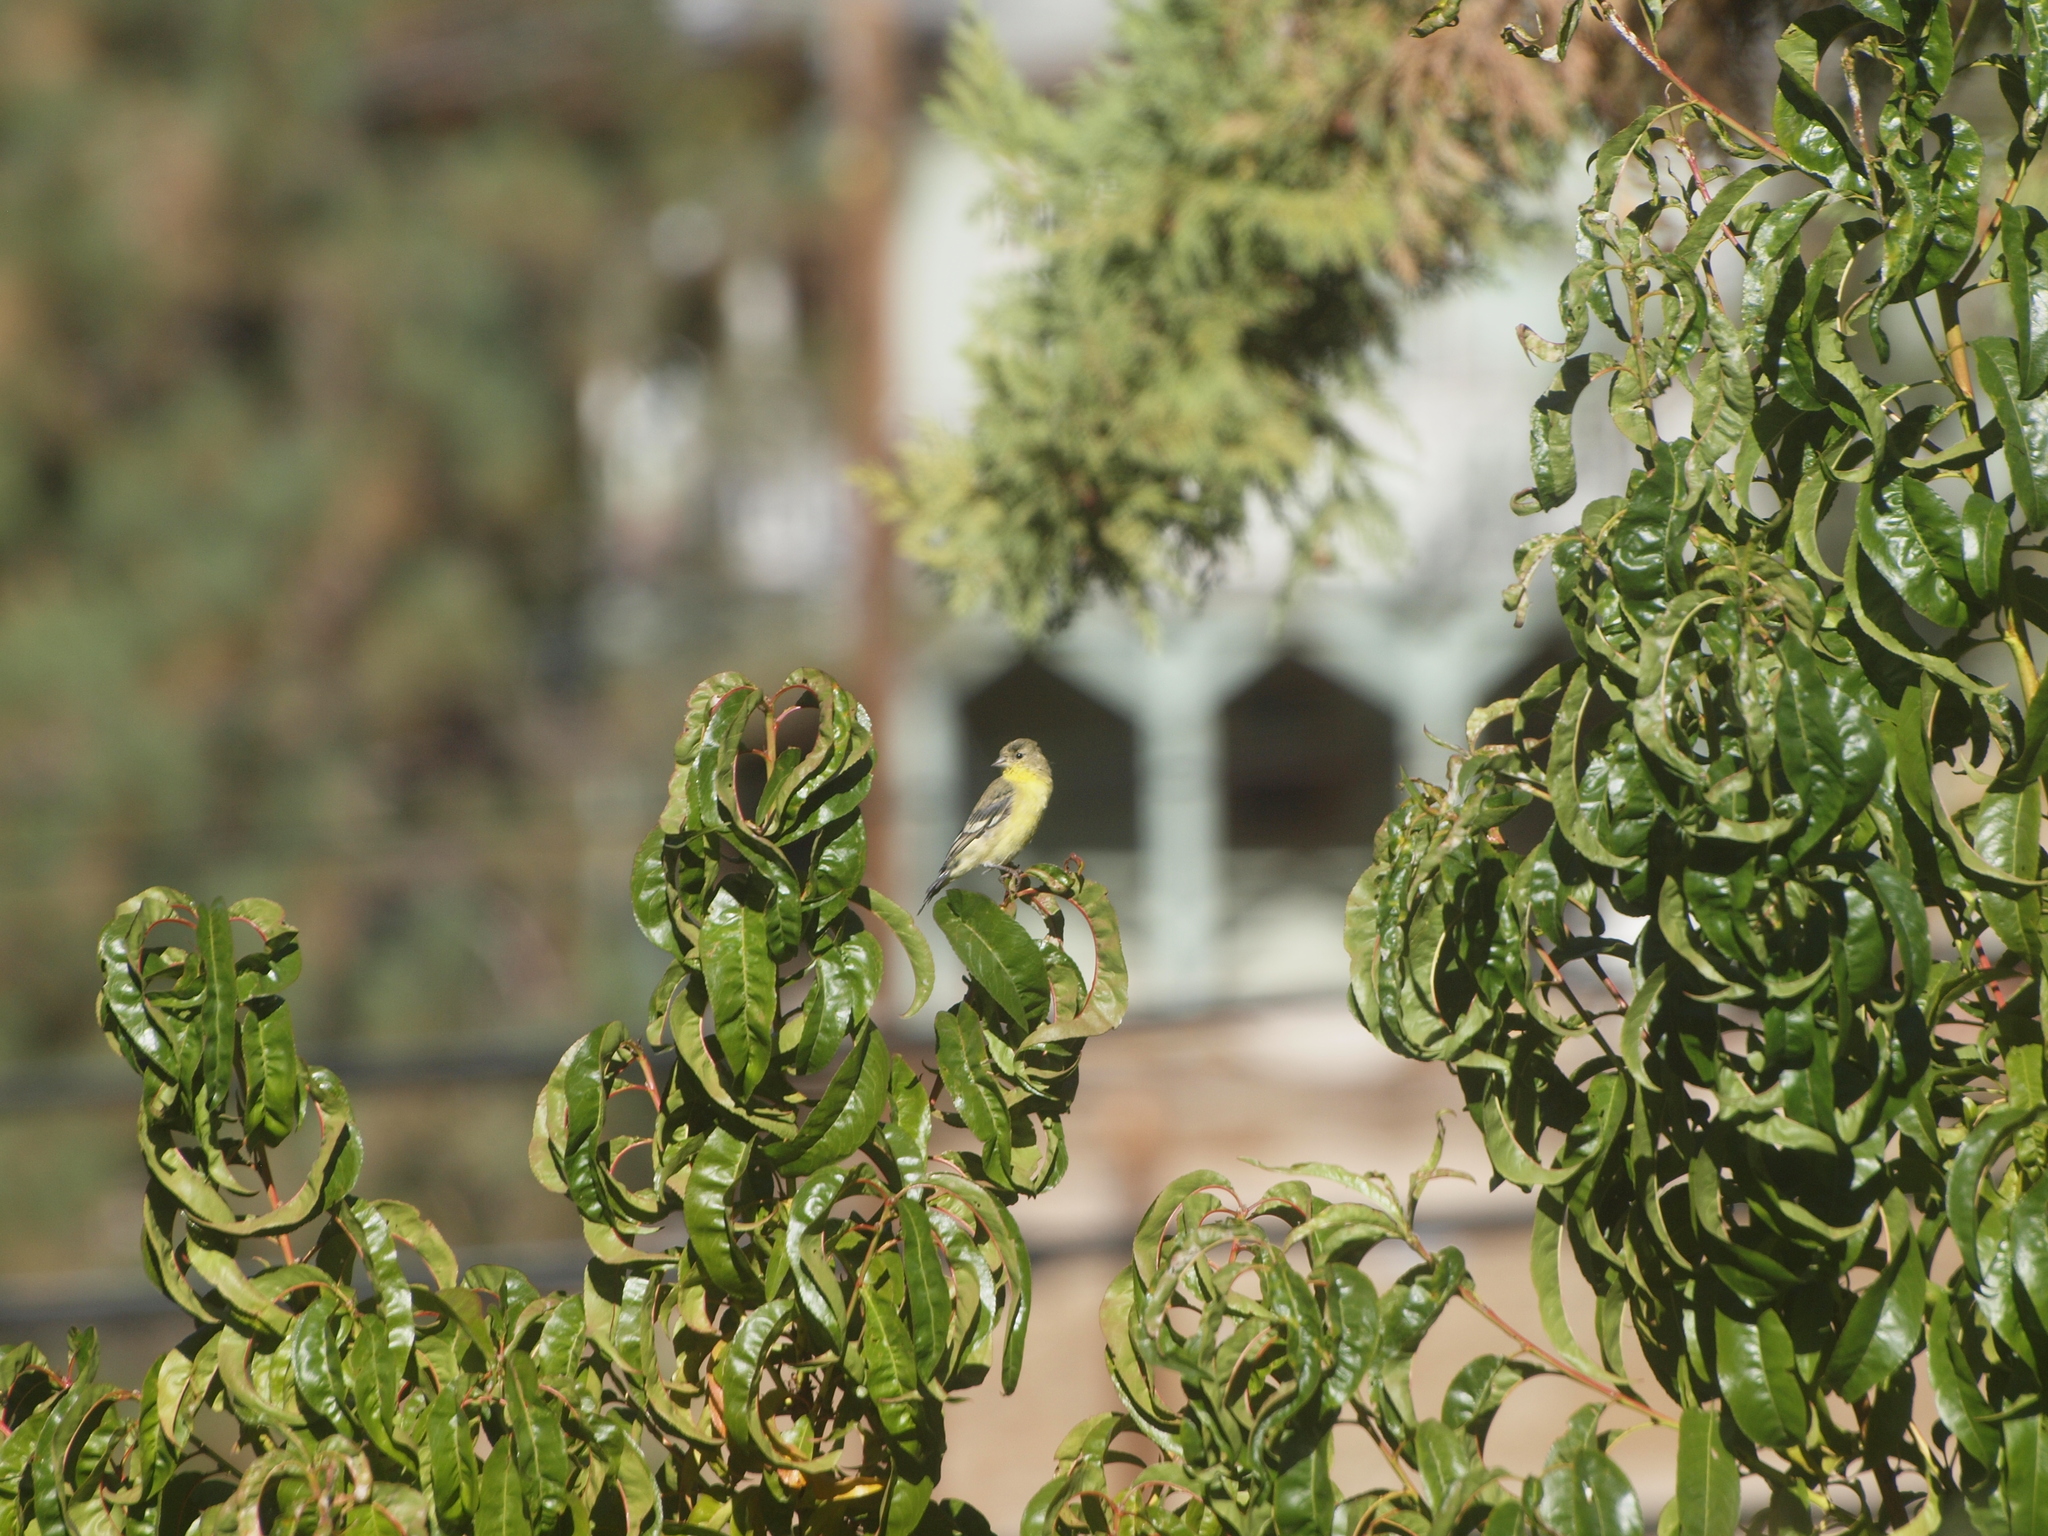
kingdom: Animalia
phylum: Chordata
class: Aves
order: Passeriformes
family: Fringillidae
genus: Spinus
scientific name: Spinus psaltria
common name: Lesser goldfinch
